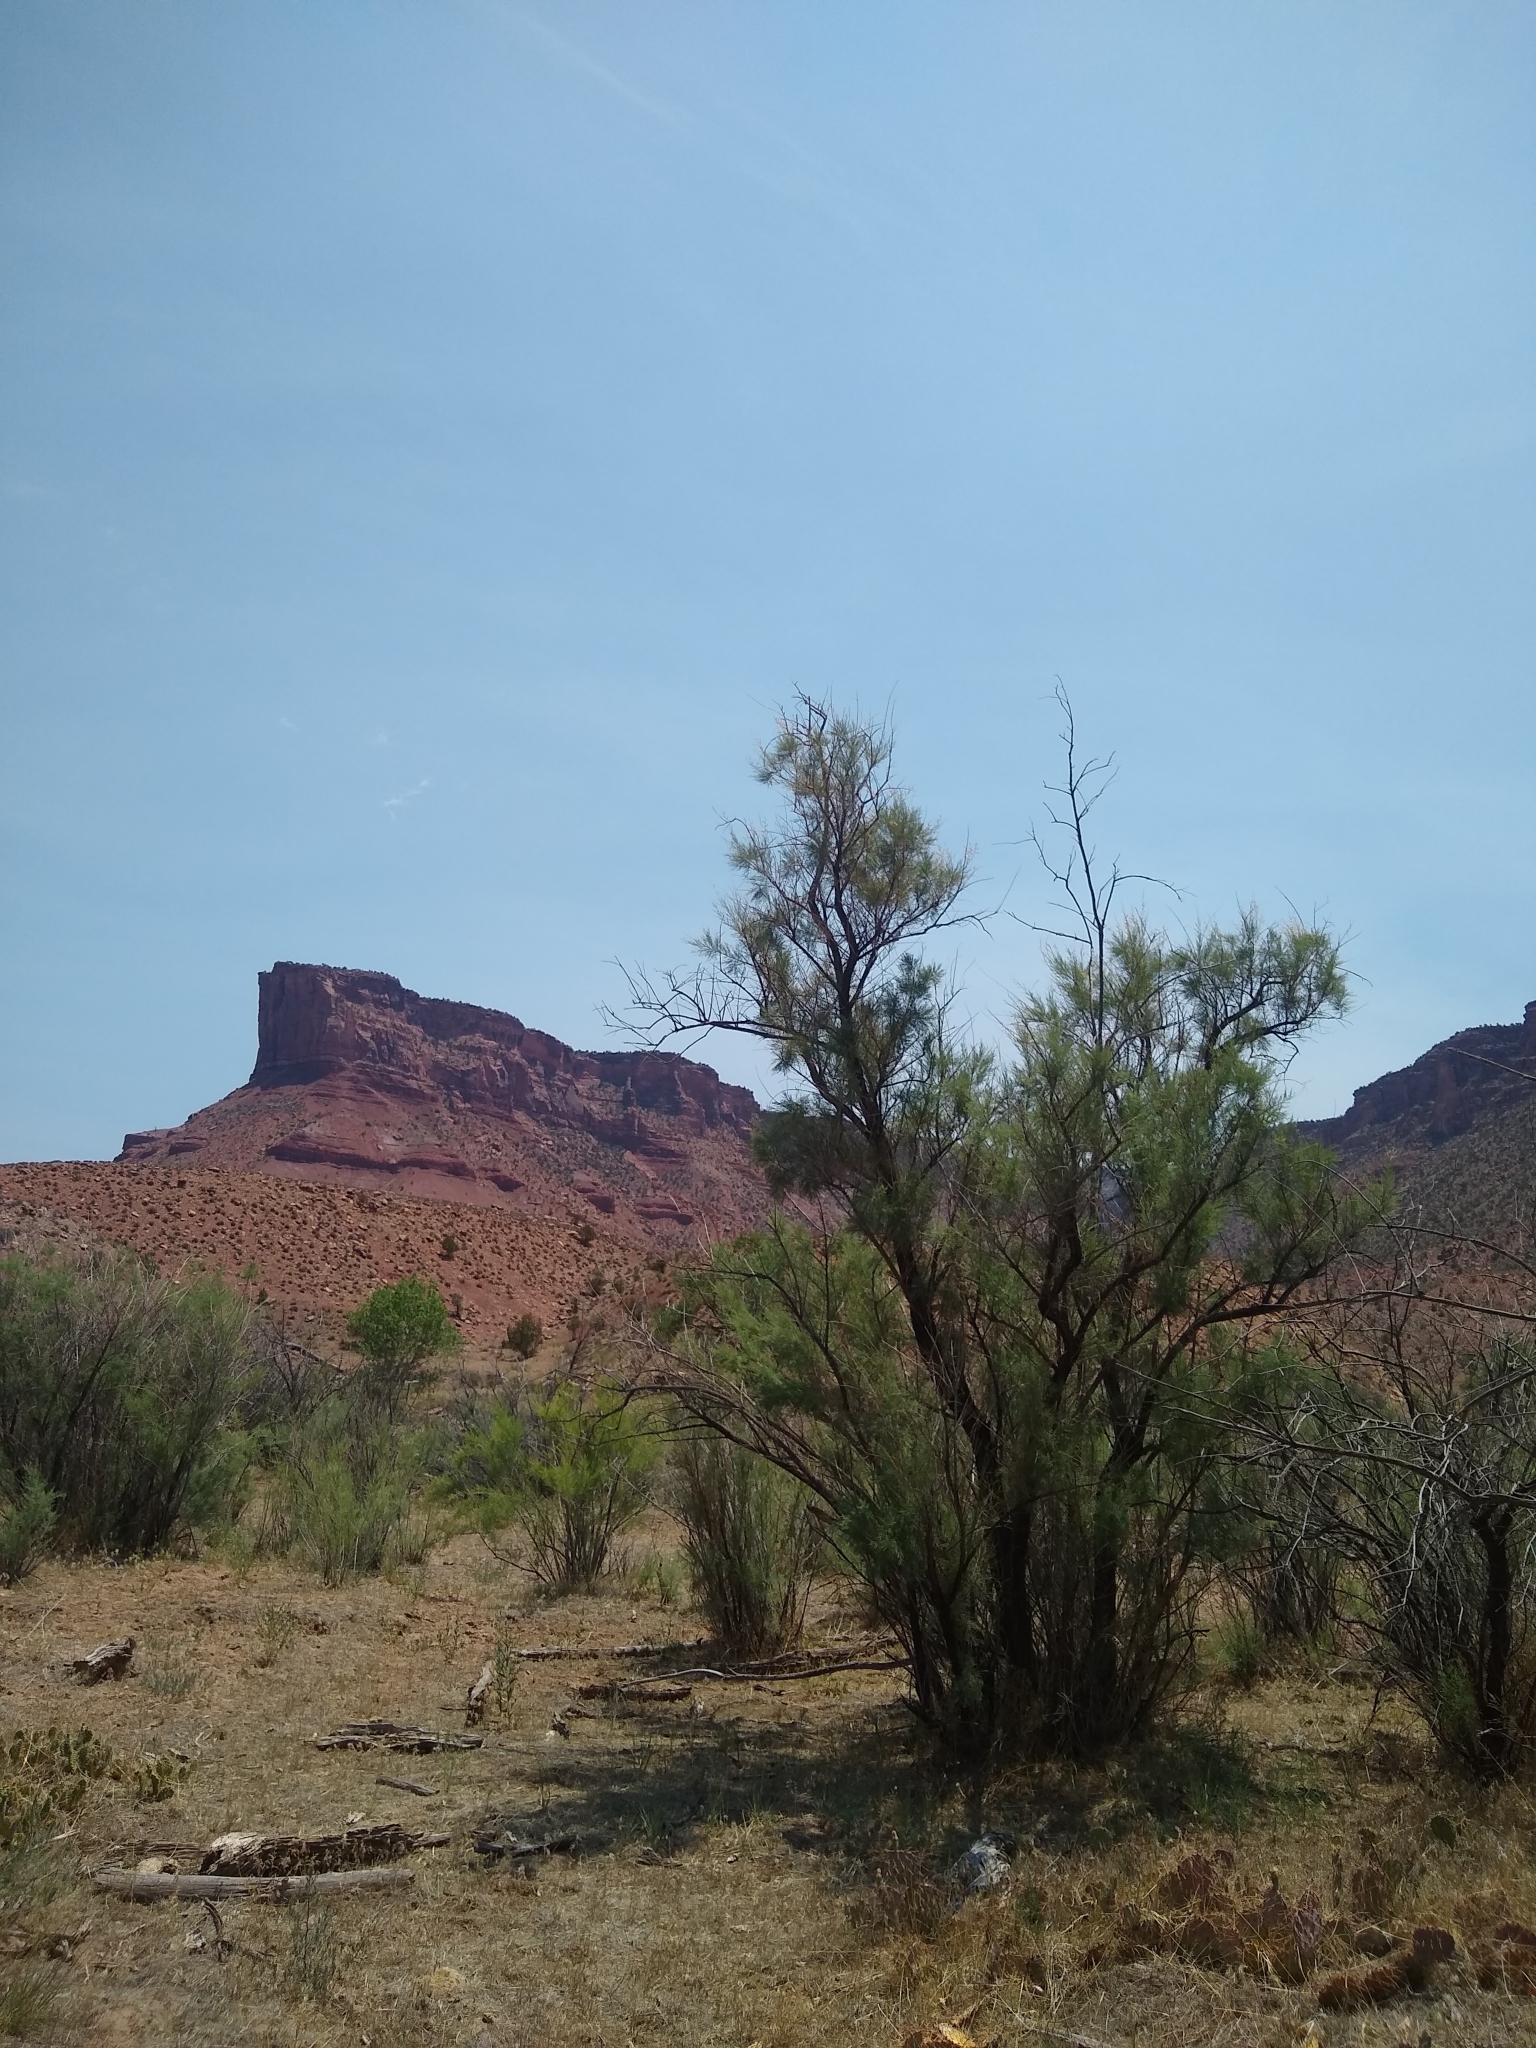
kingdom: Plantae
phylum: Tracheophyta
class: Magnoliopsida
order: Caryophyllales
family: Tamaricaceae
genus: Tamarix
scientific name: Tamarix
